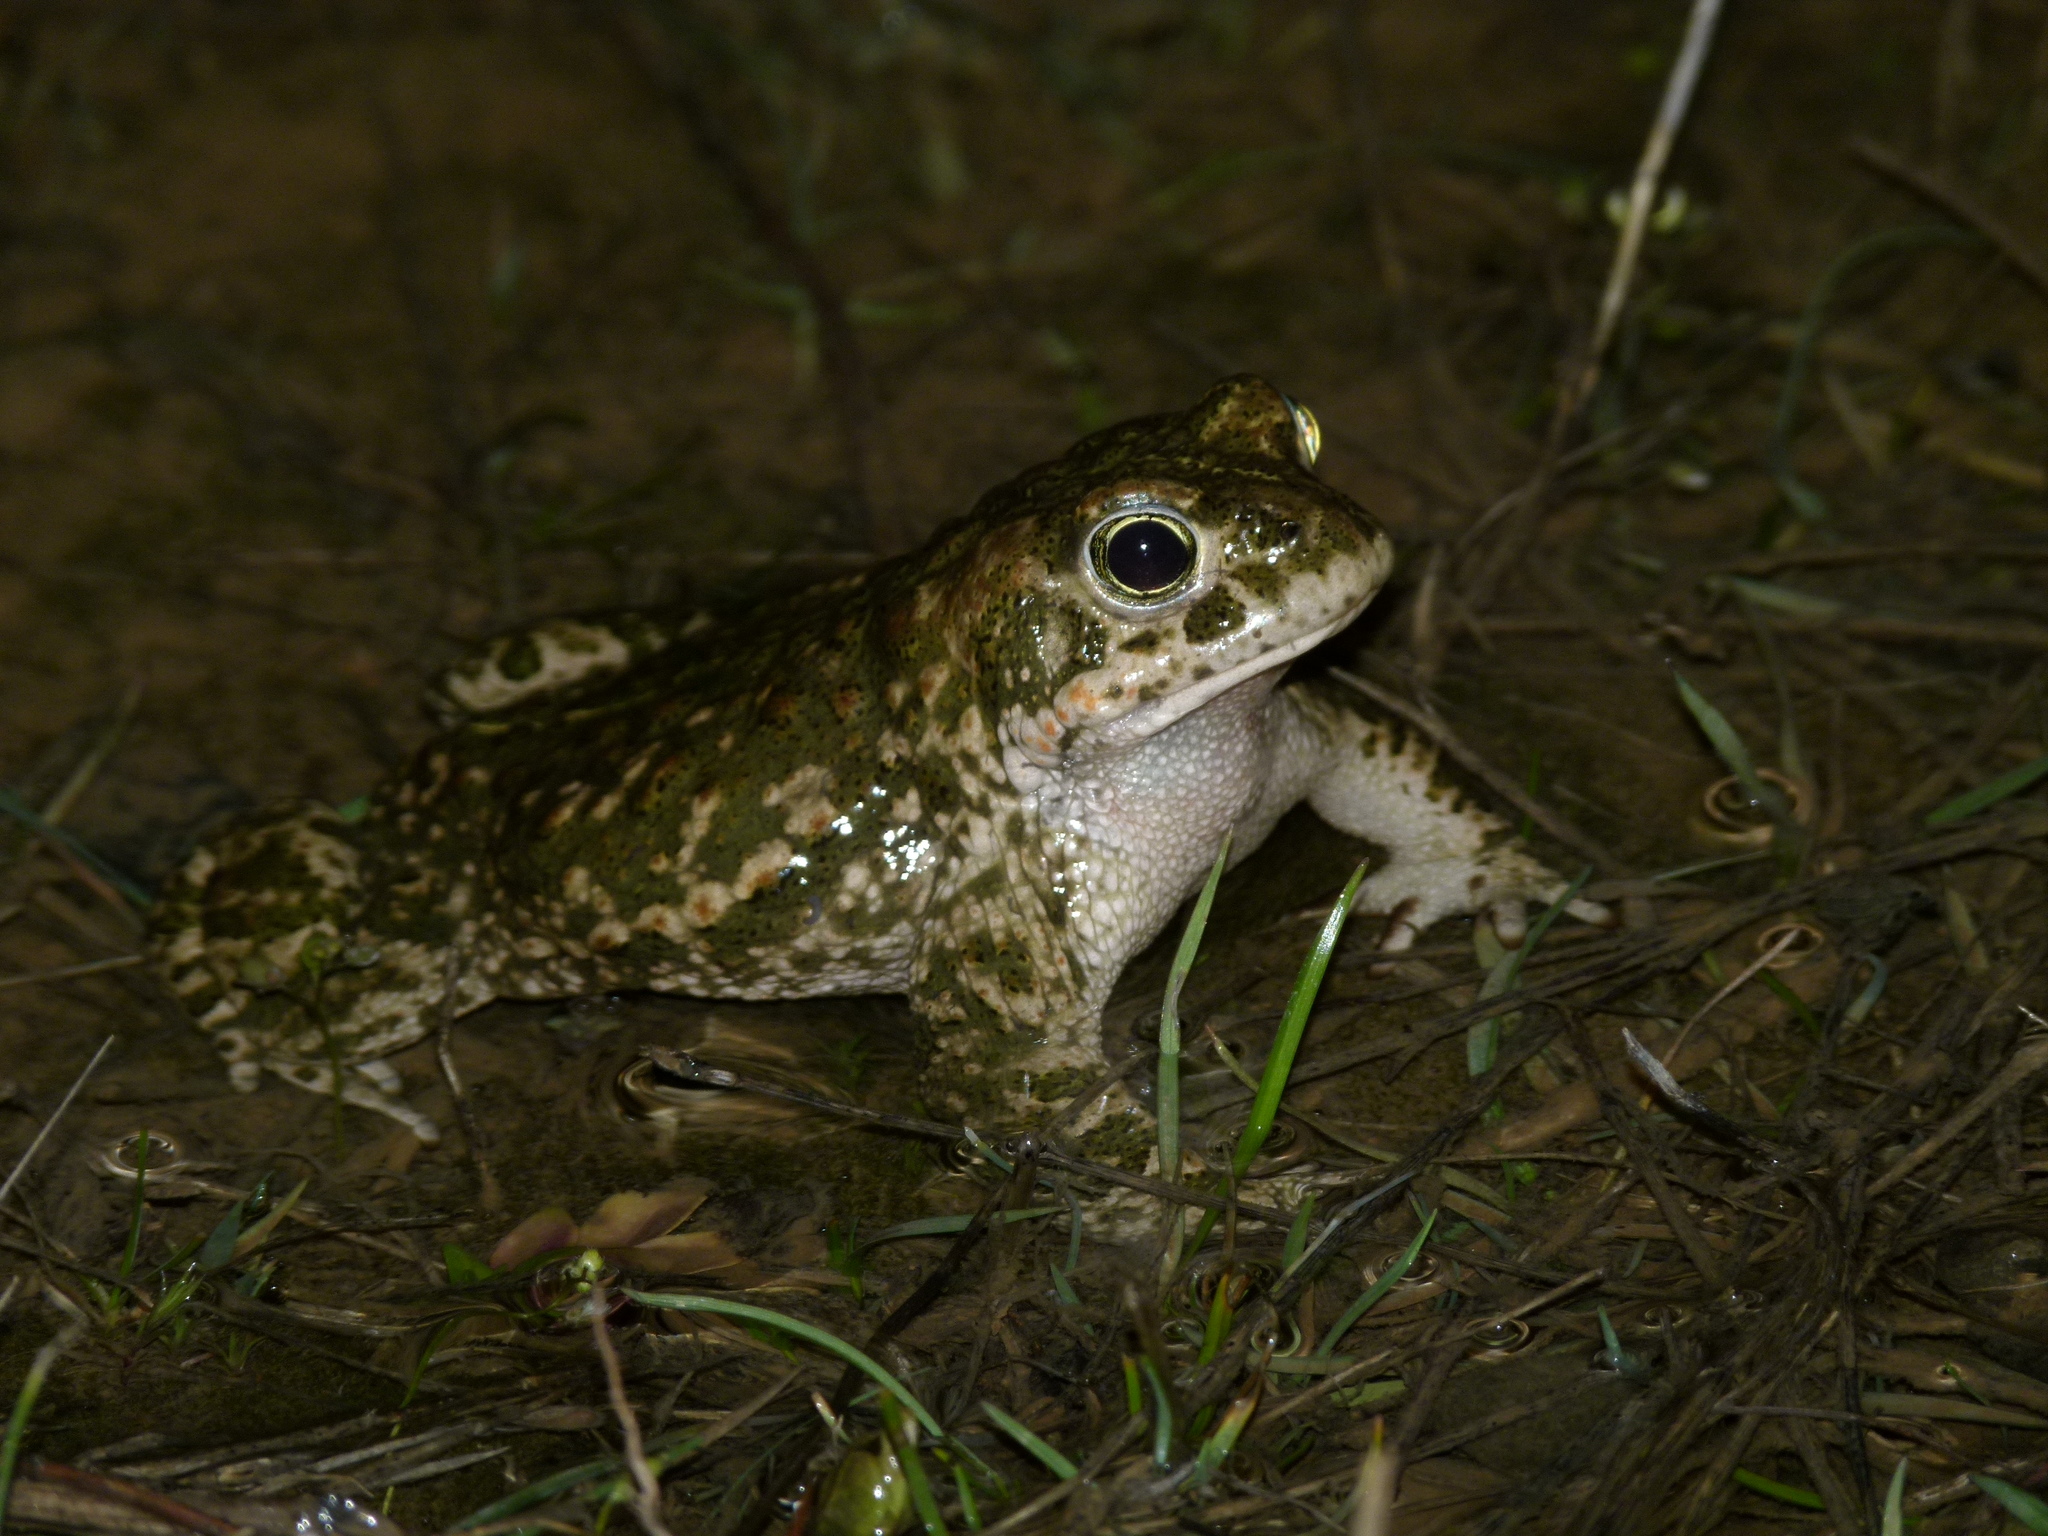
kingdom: Animalia
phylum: Chordata
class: Amphibia
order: Anura
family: Bufonidae
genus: Epidalea
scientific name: Epidalea calamita
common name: Natterjack toad
